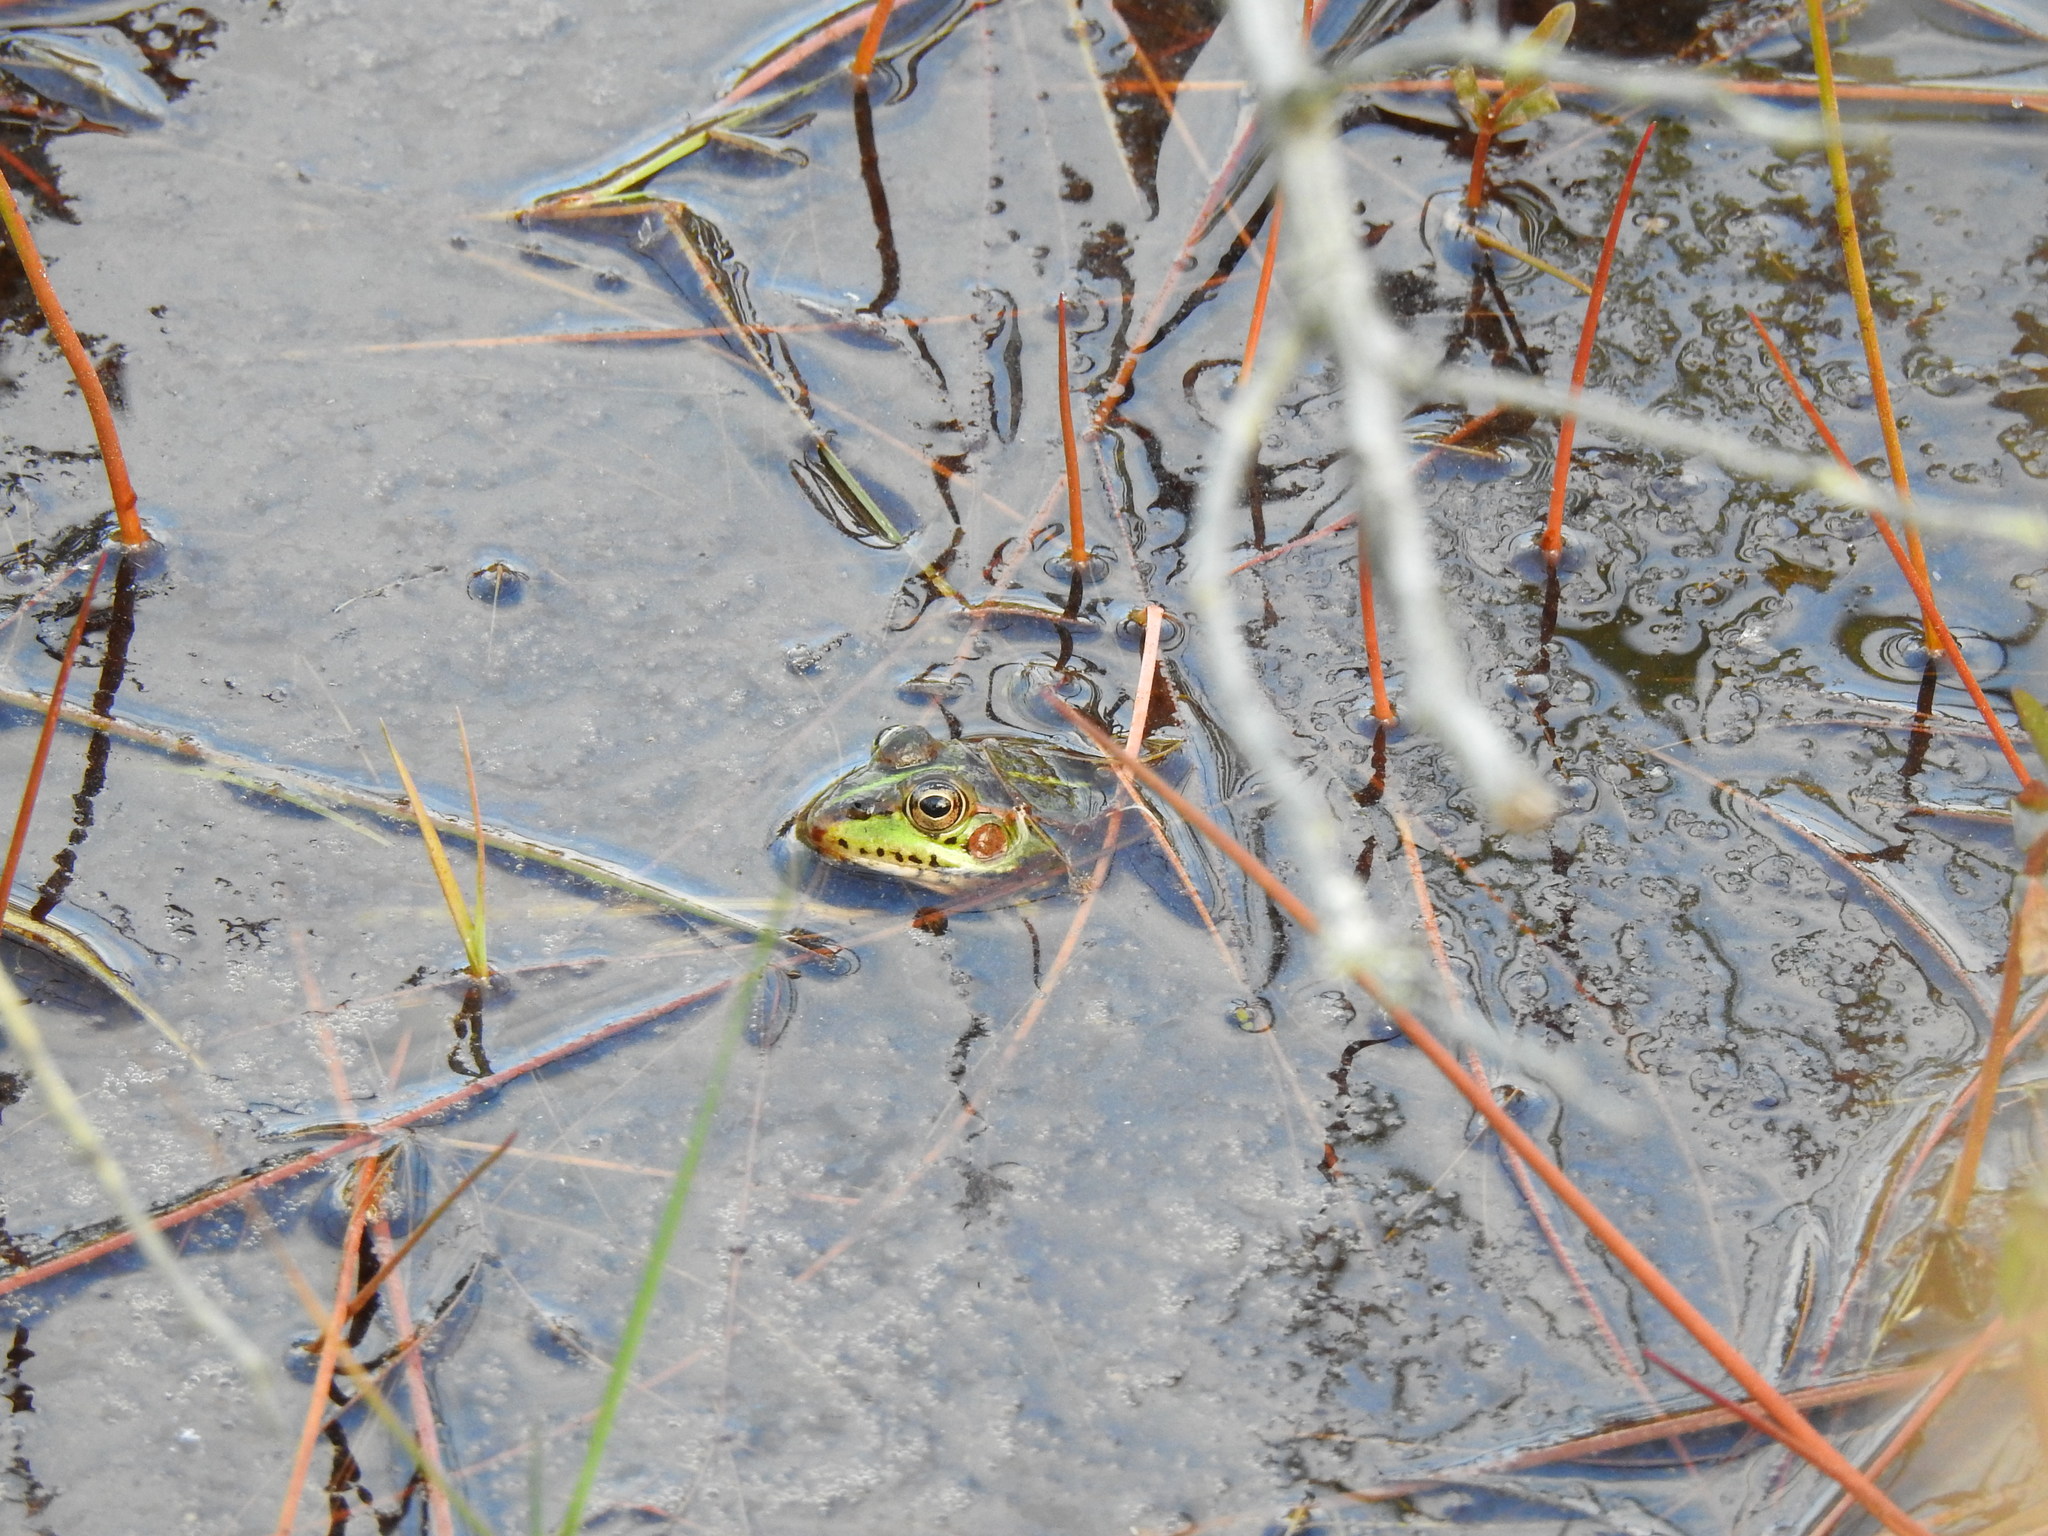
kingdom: Animalia
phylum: Chordata
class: Amphibia
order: Anura
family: Ranidae
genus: Pelophylax
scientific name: Pelophylax perezi
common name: Perez's frog
